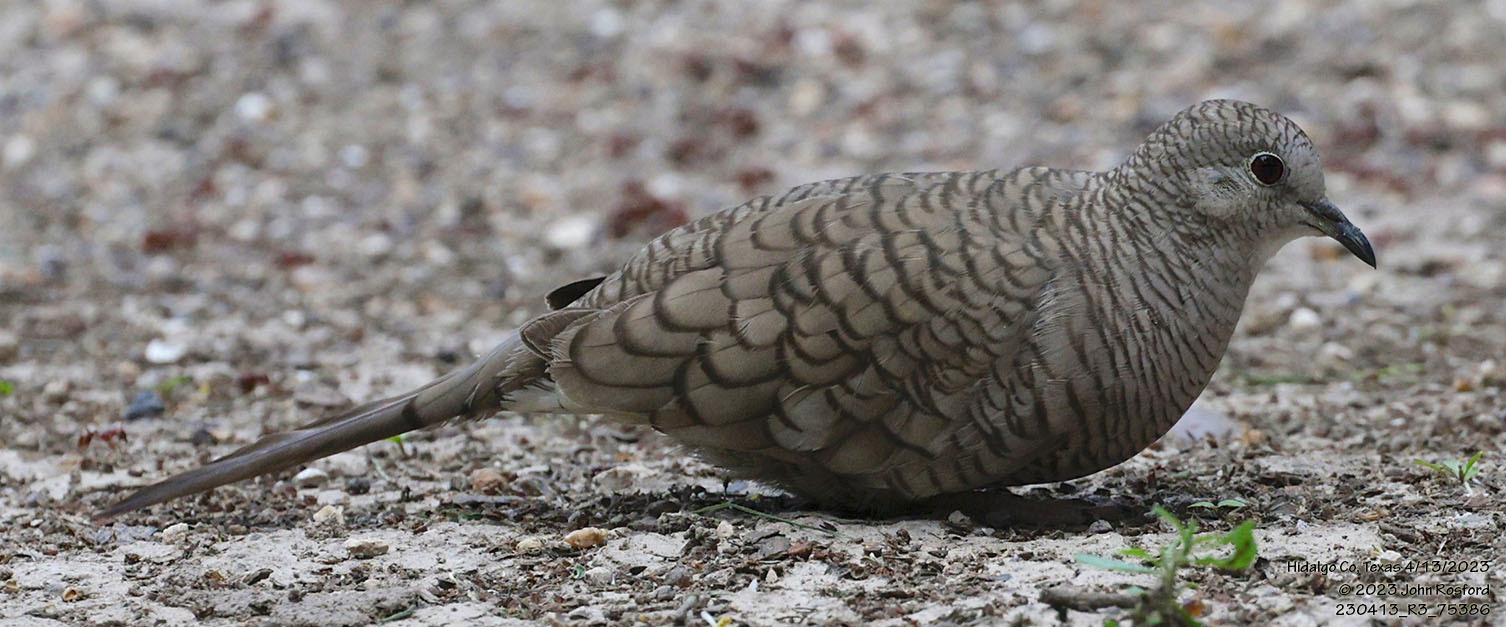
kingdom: Animalia
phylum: Chordata
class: Aves
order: Columbiformes
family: Columbidae
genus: Columbina
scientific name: Columbina inca
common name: Inca dove
